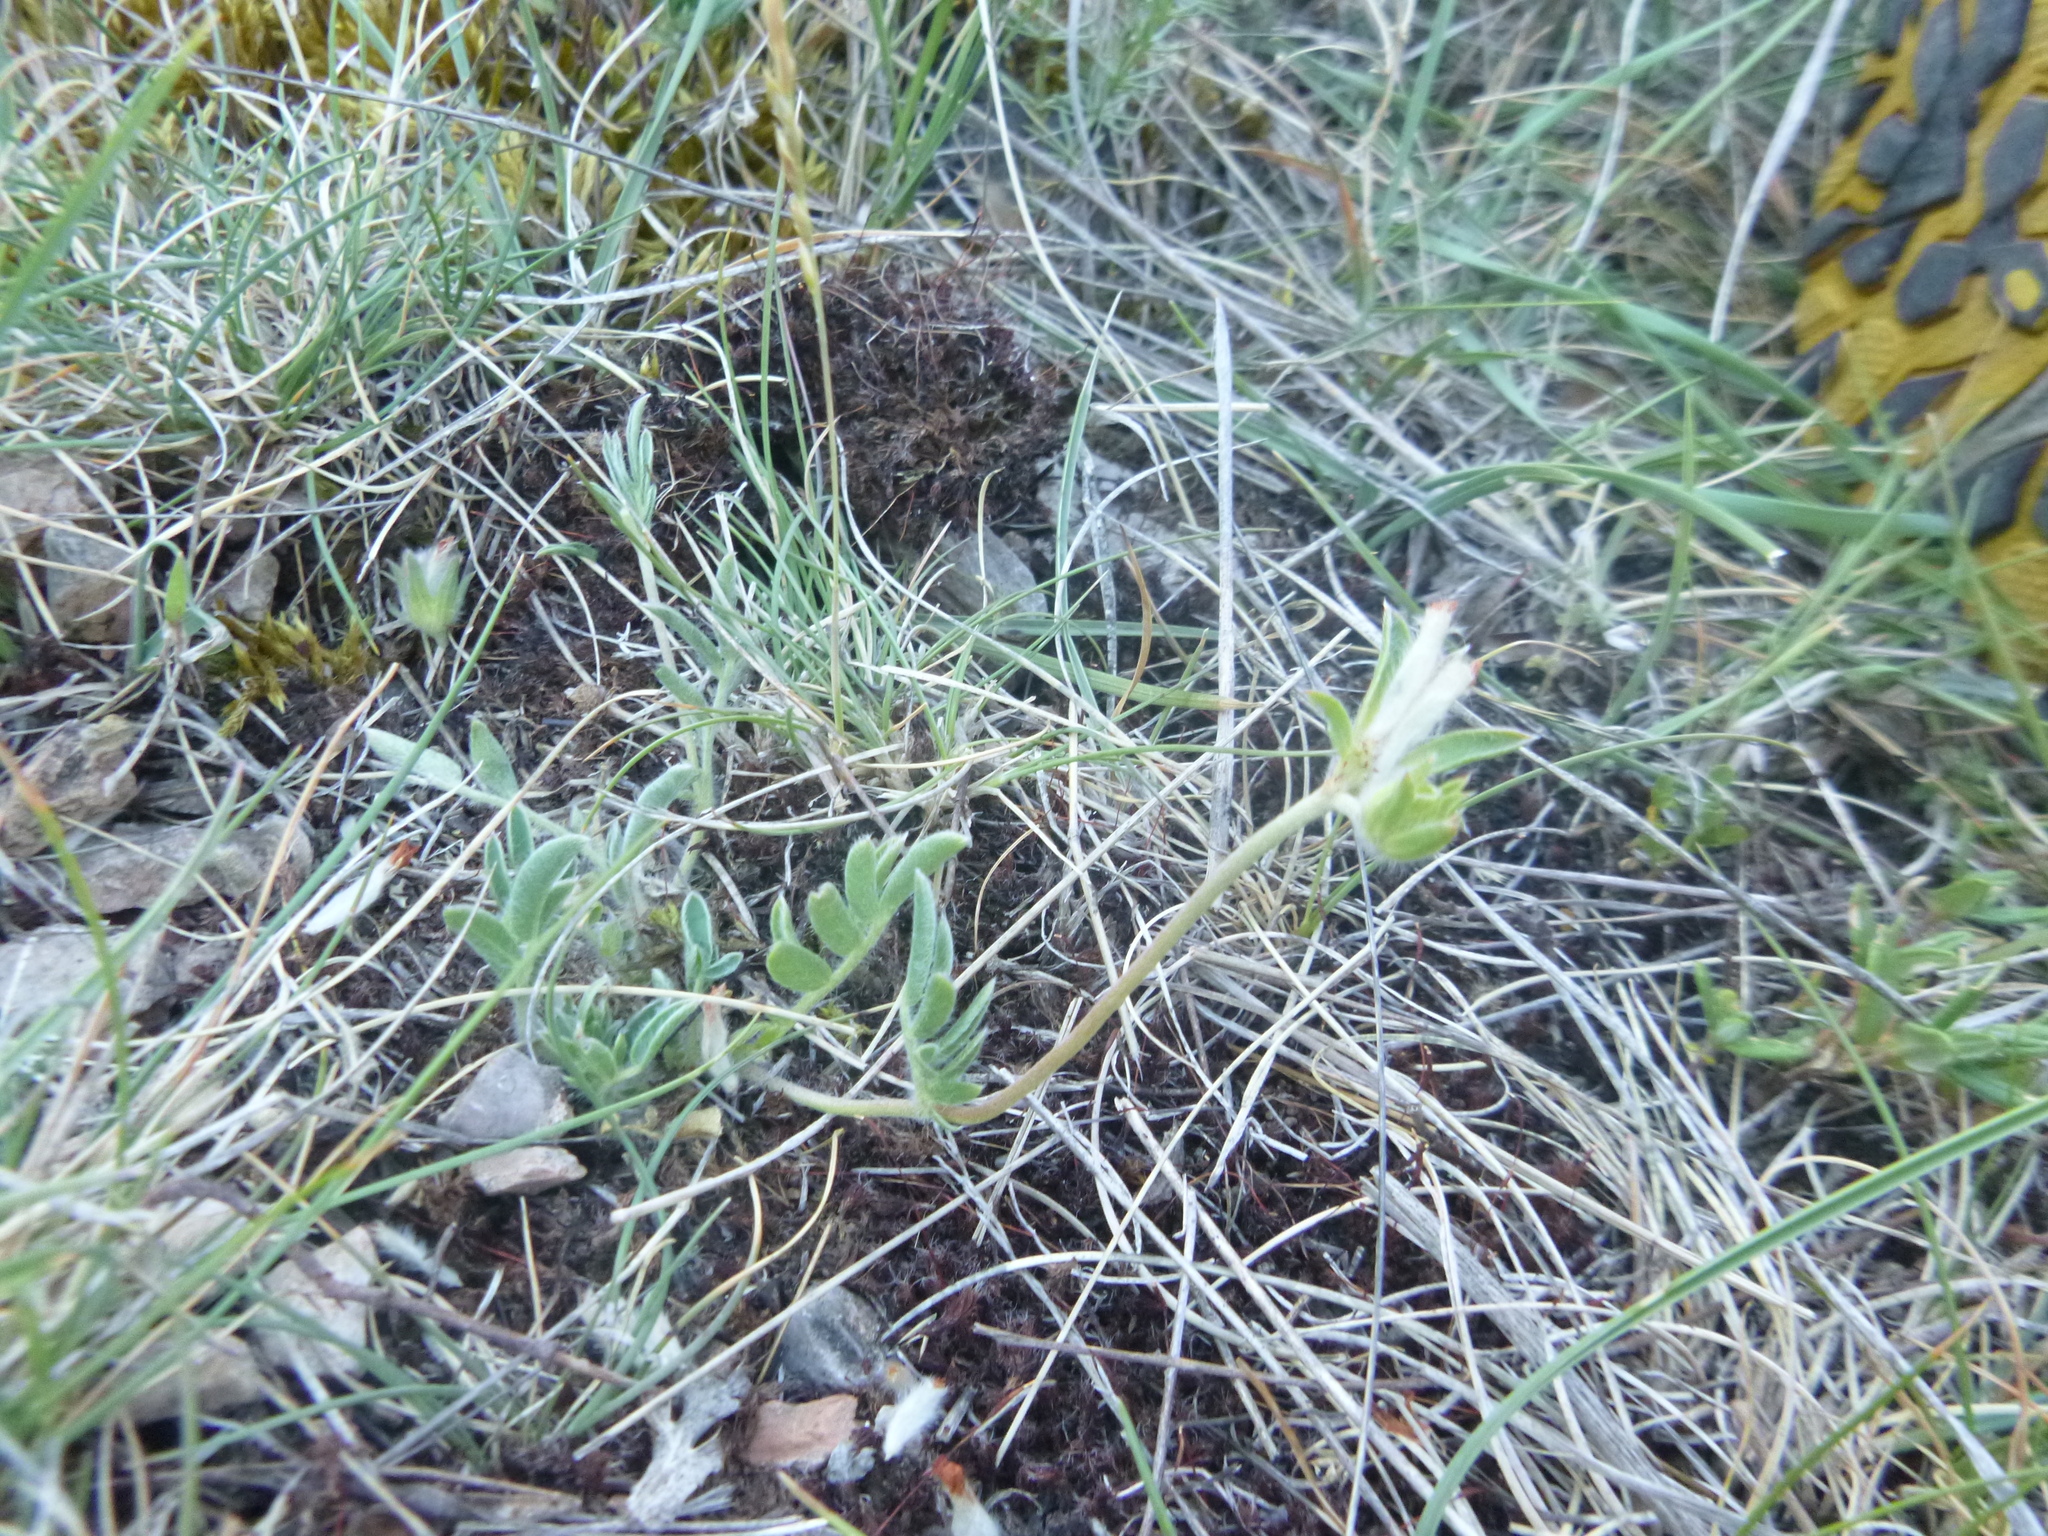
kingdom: Plantae
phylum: Tracheophyta
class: Magnoliopsida
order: Fabales
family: Fabaceae
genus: Anthyllis
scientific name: Anthyllis vulneraria
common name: Kidney vetch
